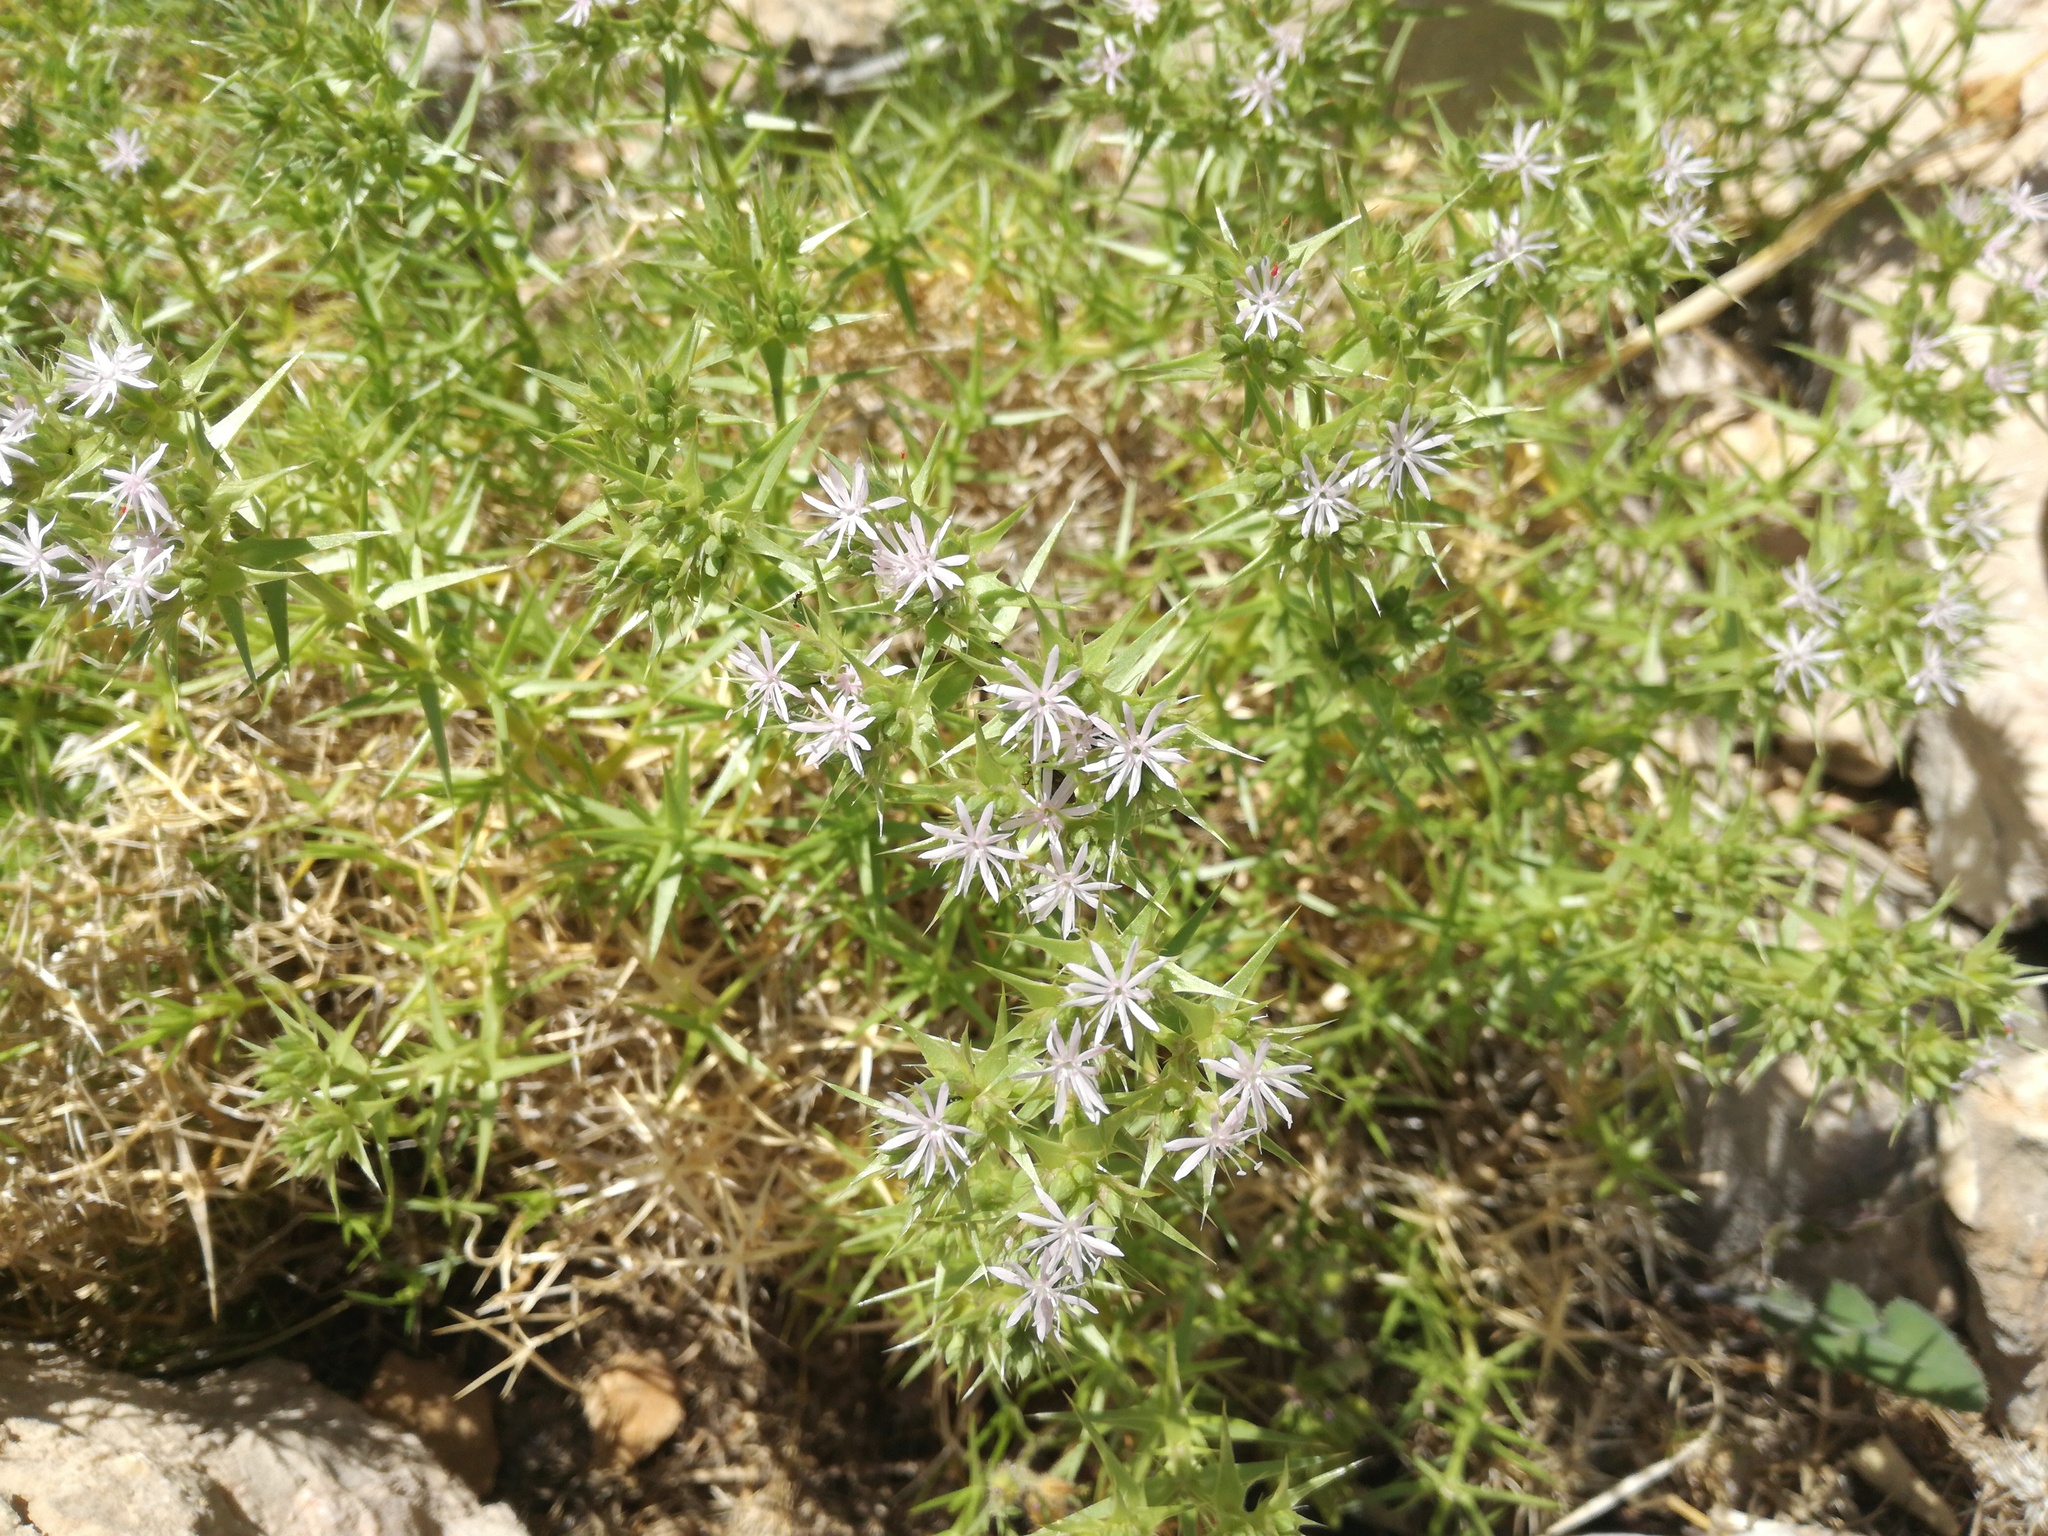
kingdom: Plantae
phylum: Tracheophyta
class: Magnoliopsida
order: Caryophyllales
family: Caryophyllaceae
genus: Drypis
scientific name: Drypis spinosa
